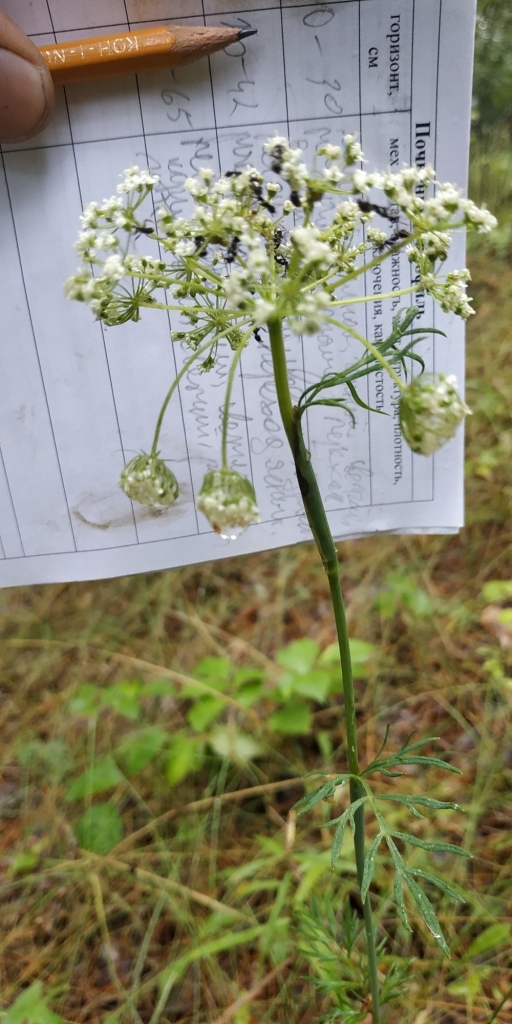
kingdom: Plantae
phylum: Tracheophyta
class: Magnoliopsida
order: Apiales
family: Apiaceae
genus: Kadenia
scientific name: Kadenia dubia
